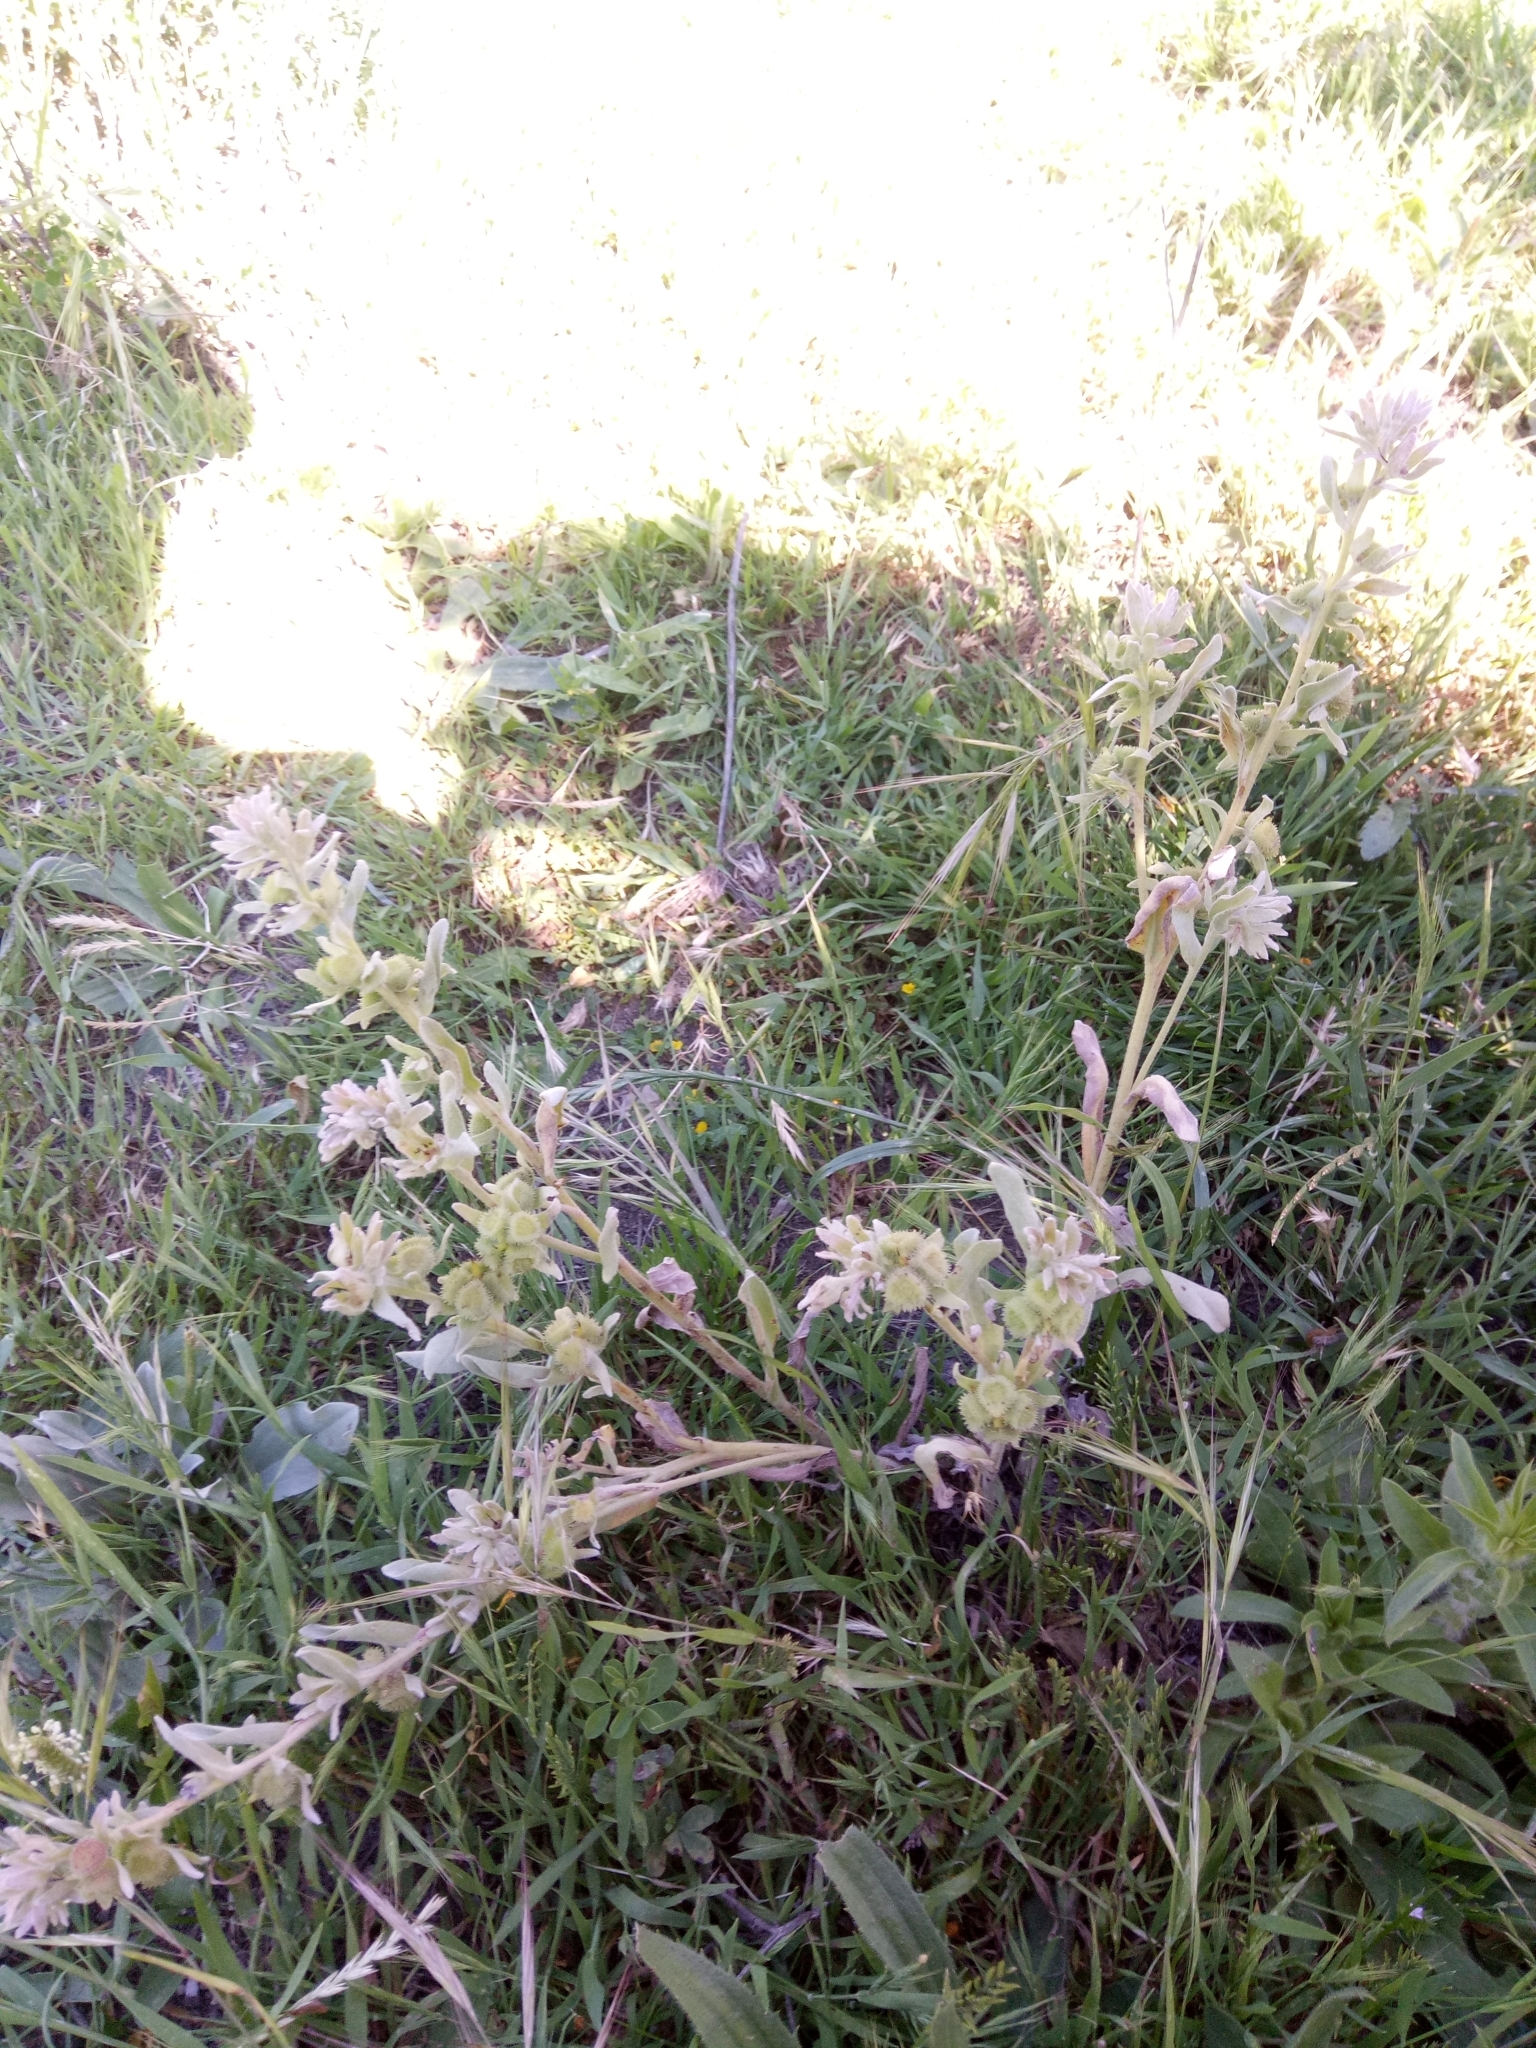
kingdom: Plantae
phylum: Tracheophyta
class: Magnoliopsida
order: Boraginales
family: Boraginaceae
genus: Pardoglossum
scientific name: Pardoglossum cheirifolium
